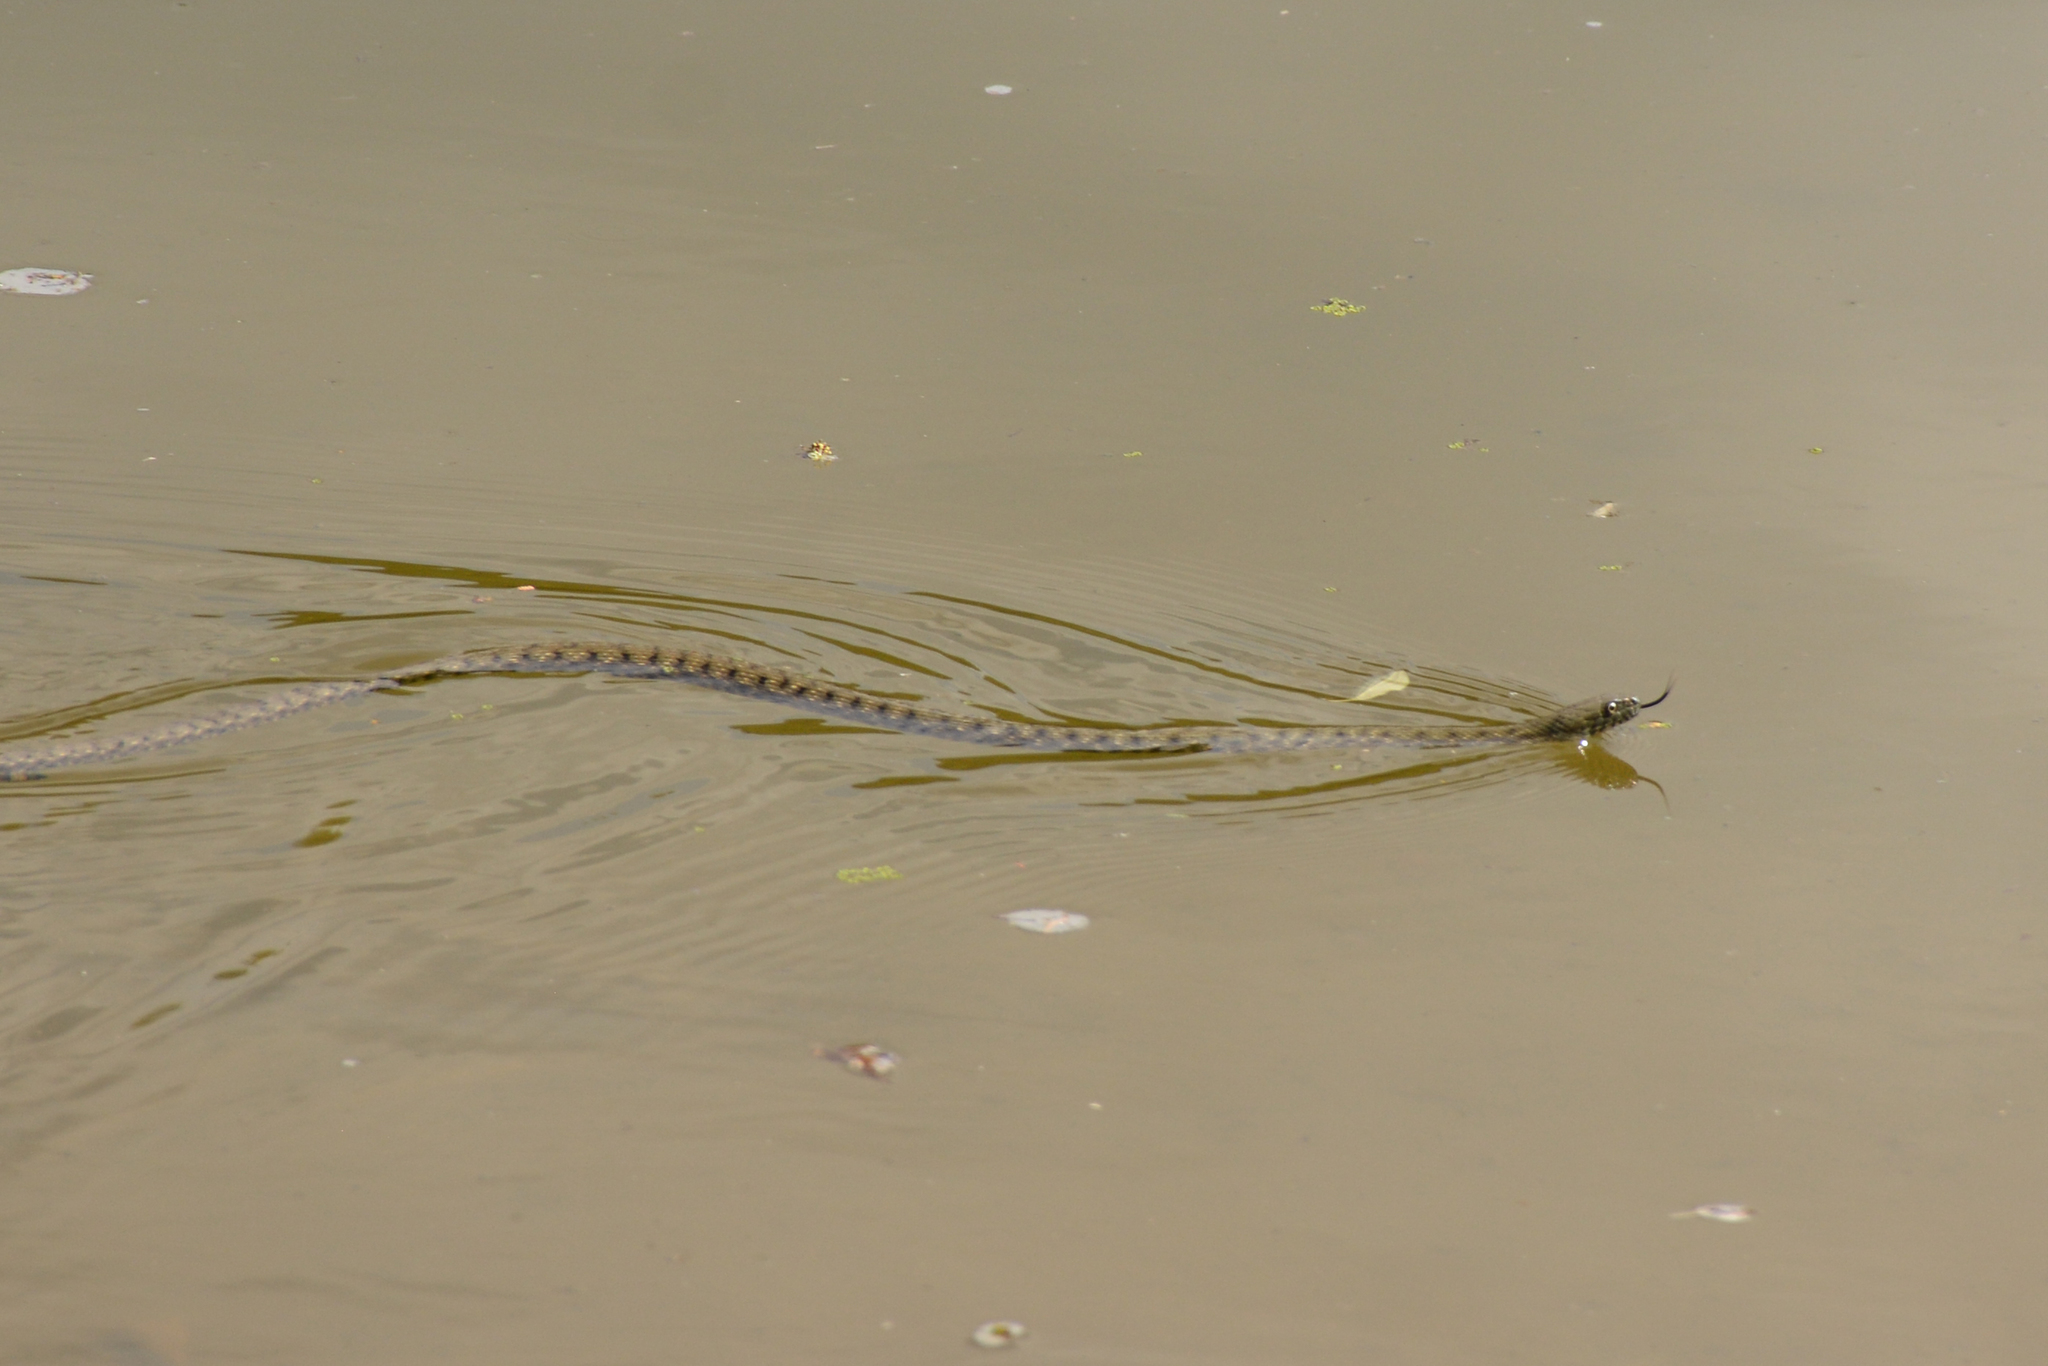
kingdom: Animalia
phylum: Chordata
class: Squamata
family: Colubridae
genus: Natrix
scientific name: Natrix tessellata
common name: Dice snake
